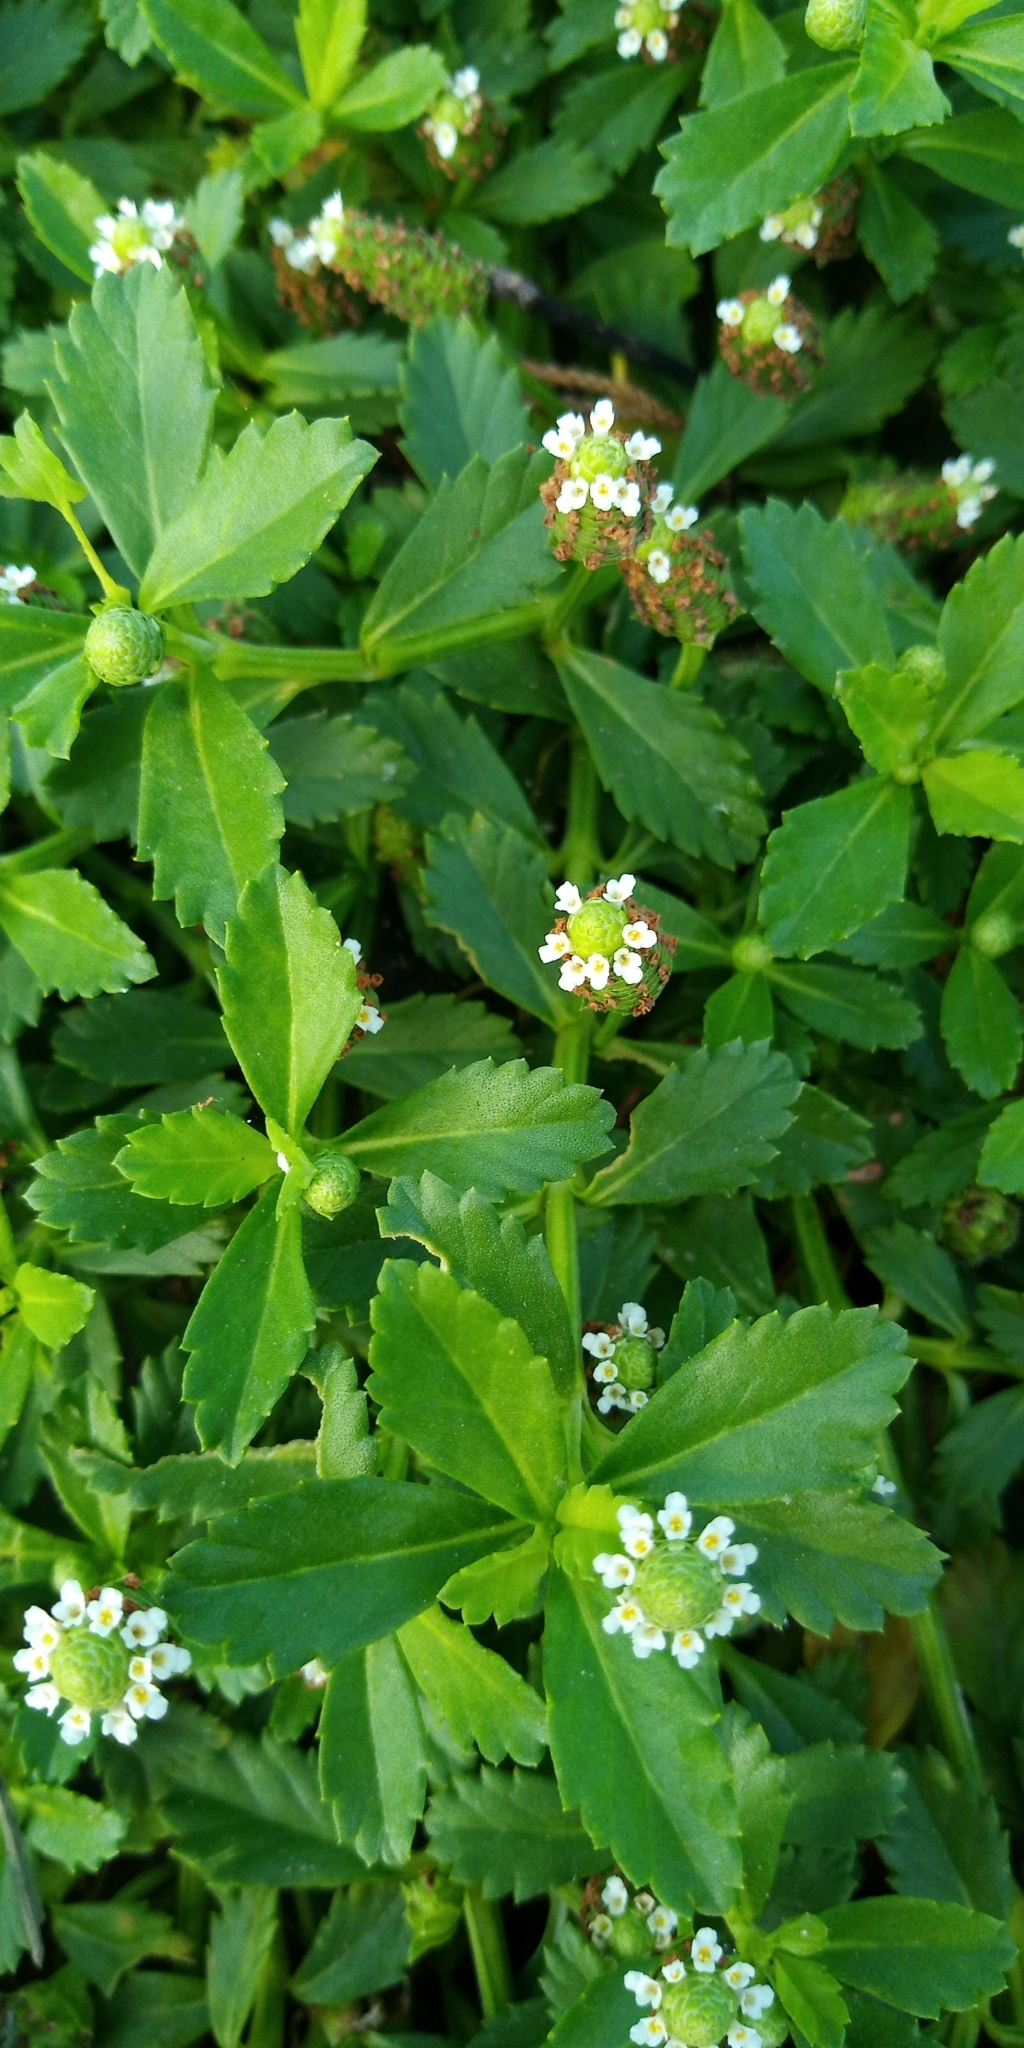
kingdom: Plantae
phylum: Tracheophyta
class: Magnoliopsida
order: Lamiales
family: Verbenaceae
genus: Phyla
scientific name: Phyla nodiflora
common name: Frogfruit
